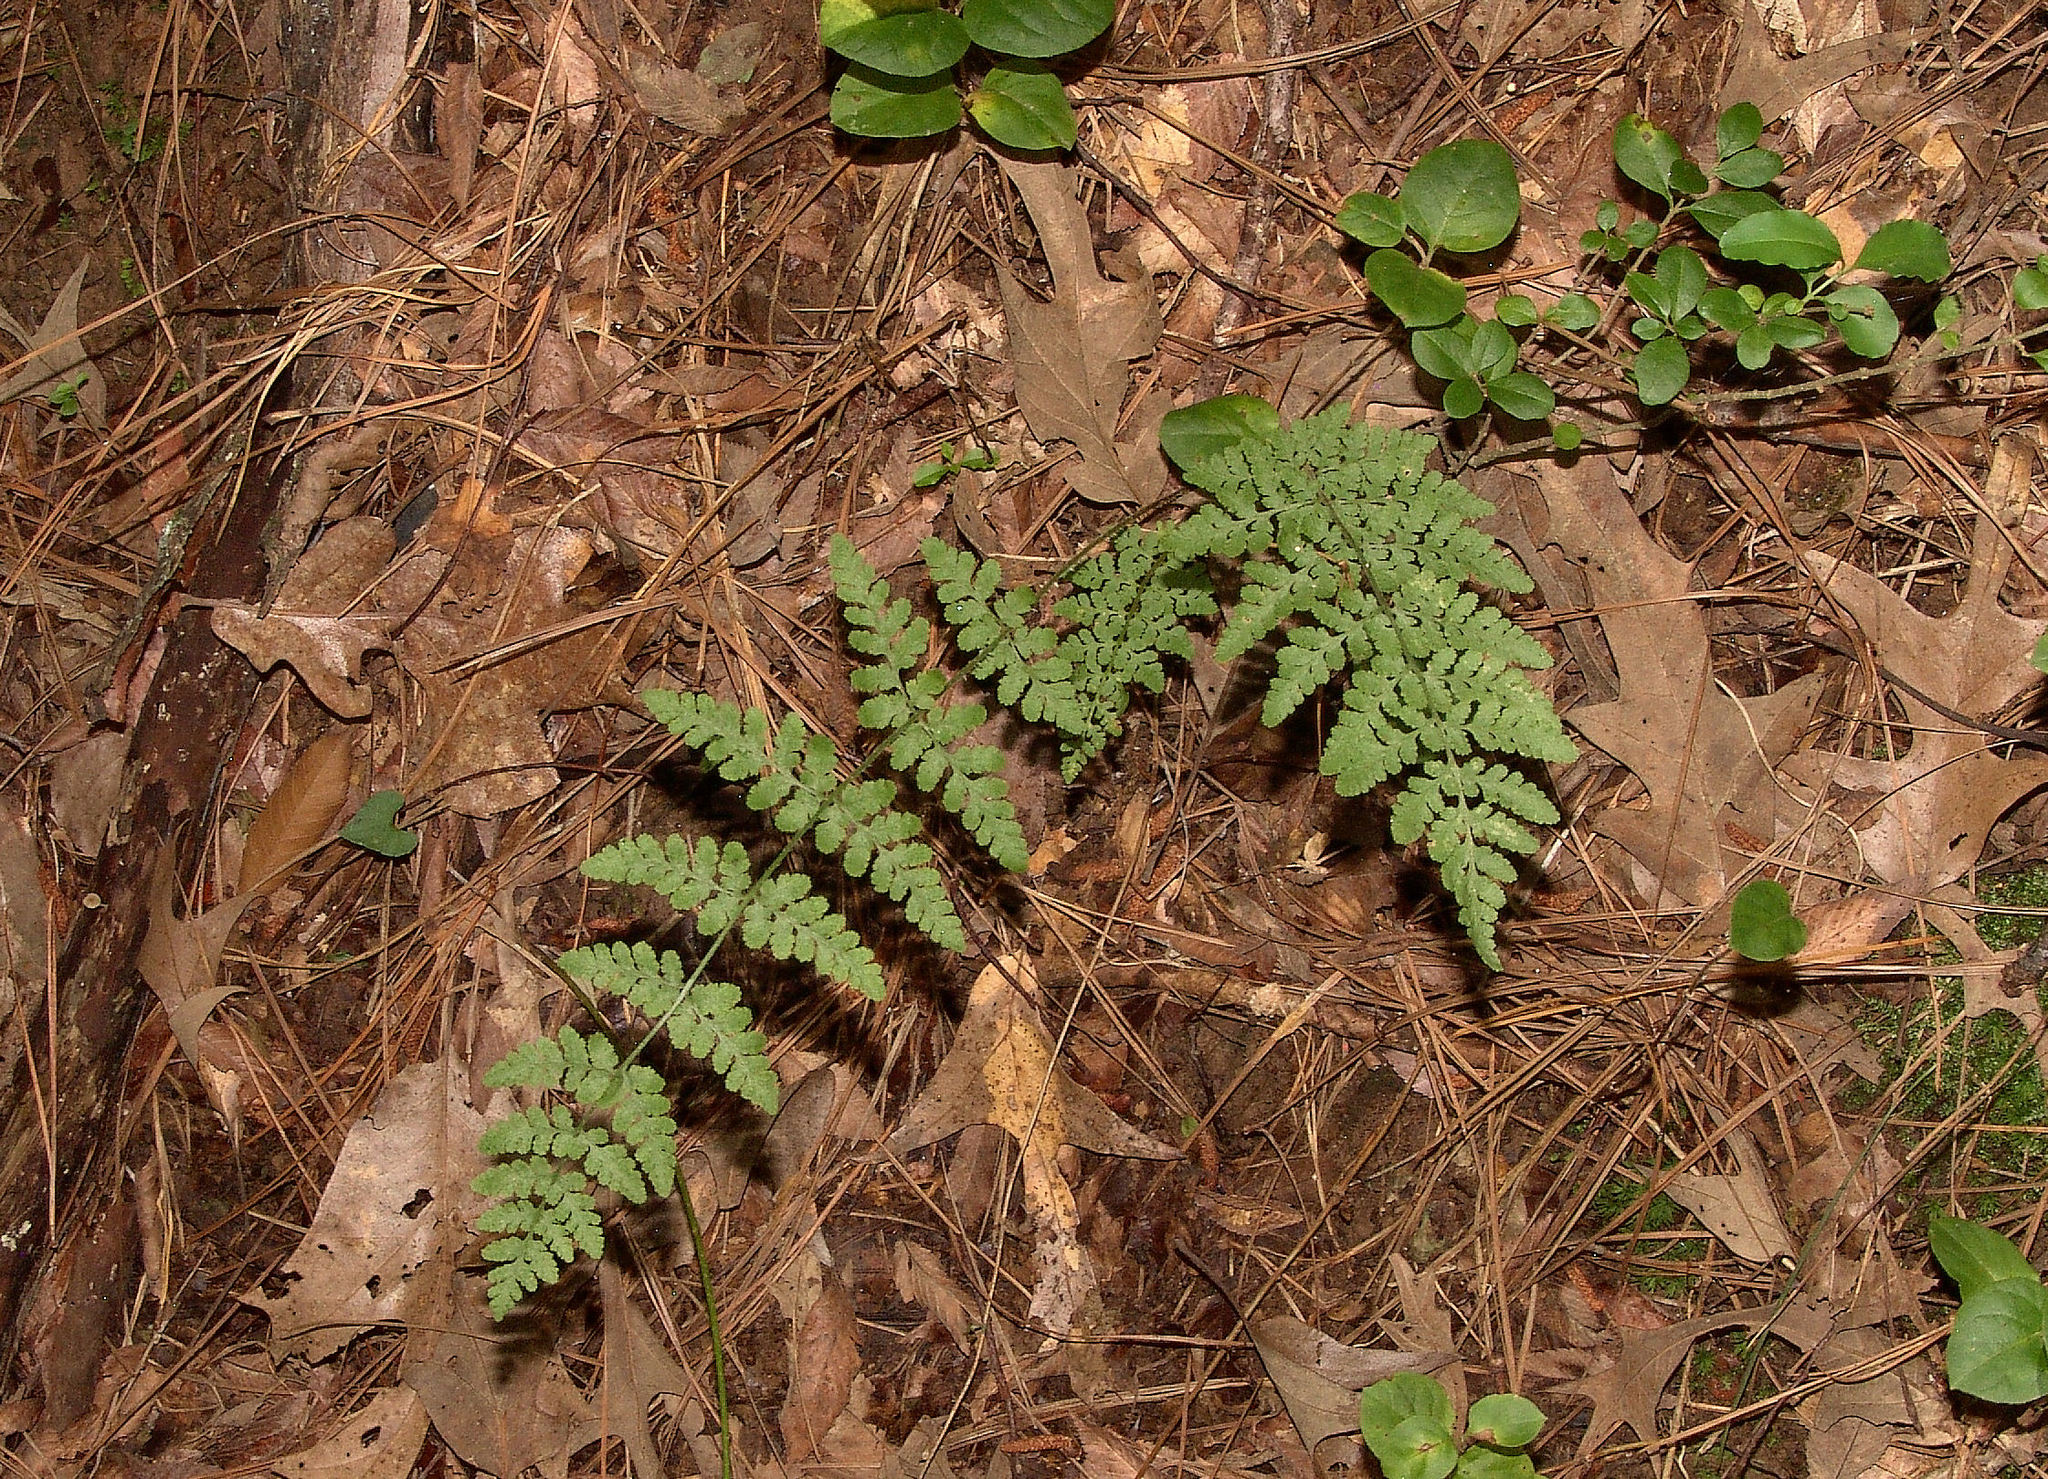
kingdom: Plantae
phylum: Tracheophyta
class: Polypodiopsida
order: Polypodiales
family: Woodsiaceae
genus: Physematium
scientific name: Physematium obtusum
